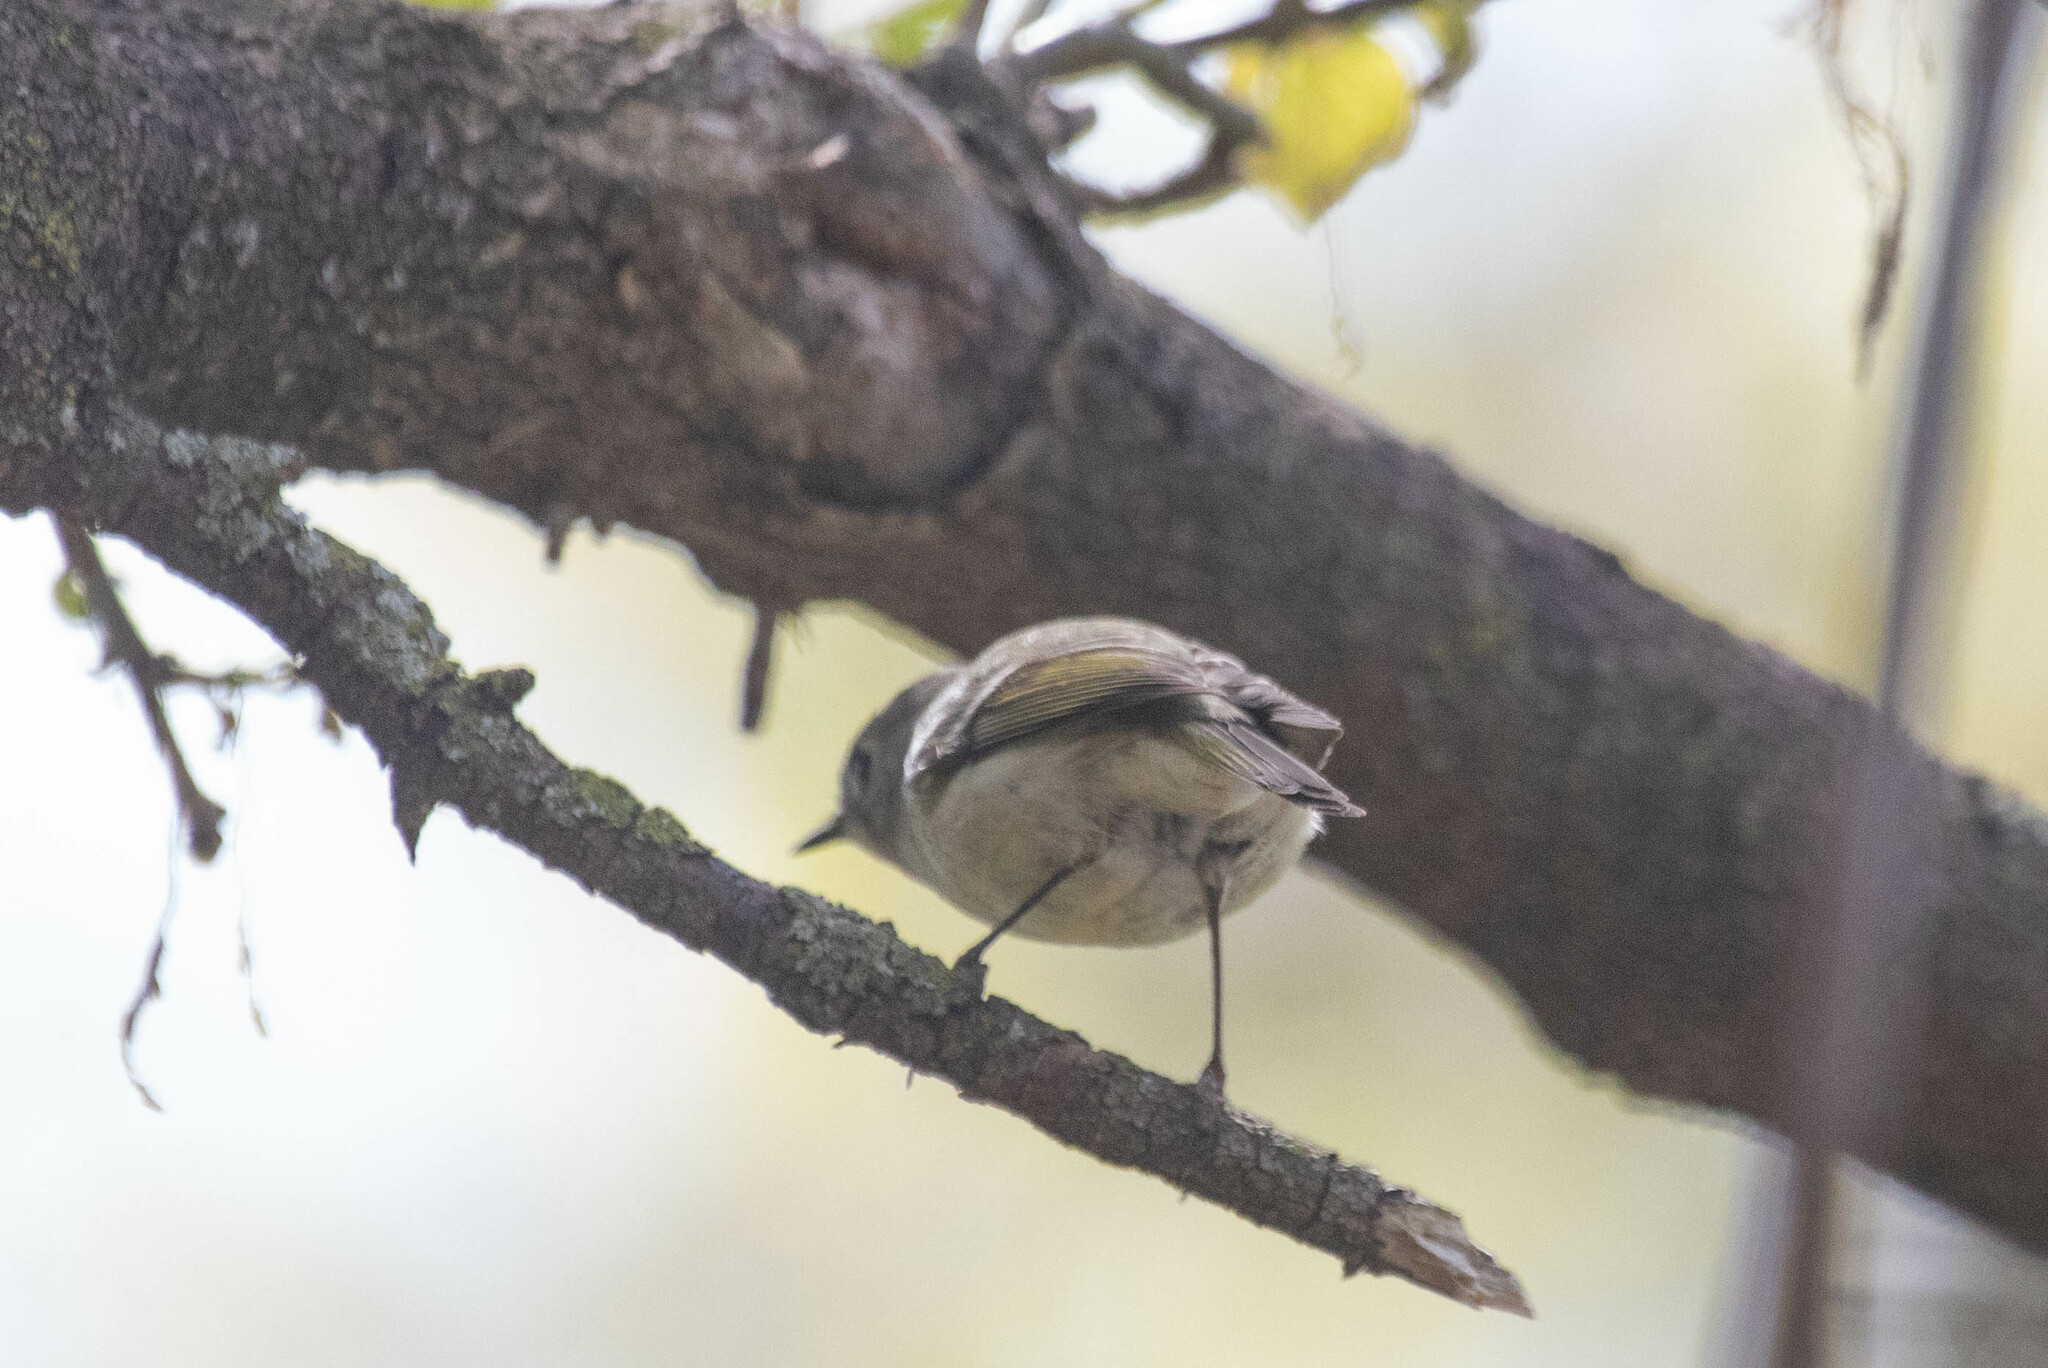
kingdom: Animalia
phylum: Chordata
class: Aves
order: Passeriformes
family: Regulidae
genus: Regulus
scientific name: Regulus calendula
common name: Ruby-crowned kinglet
